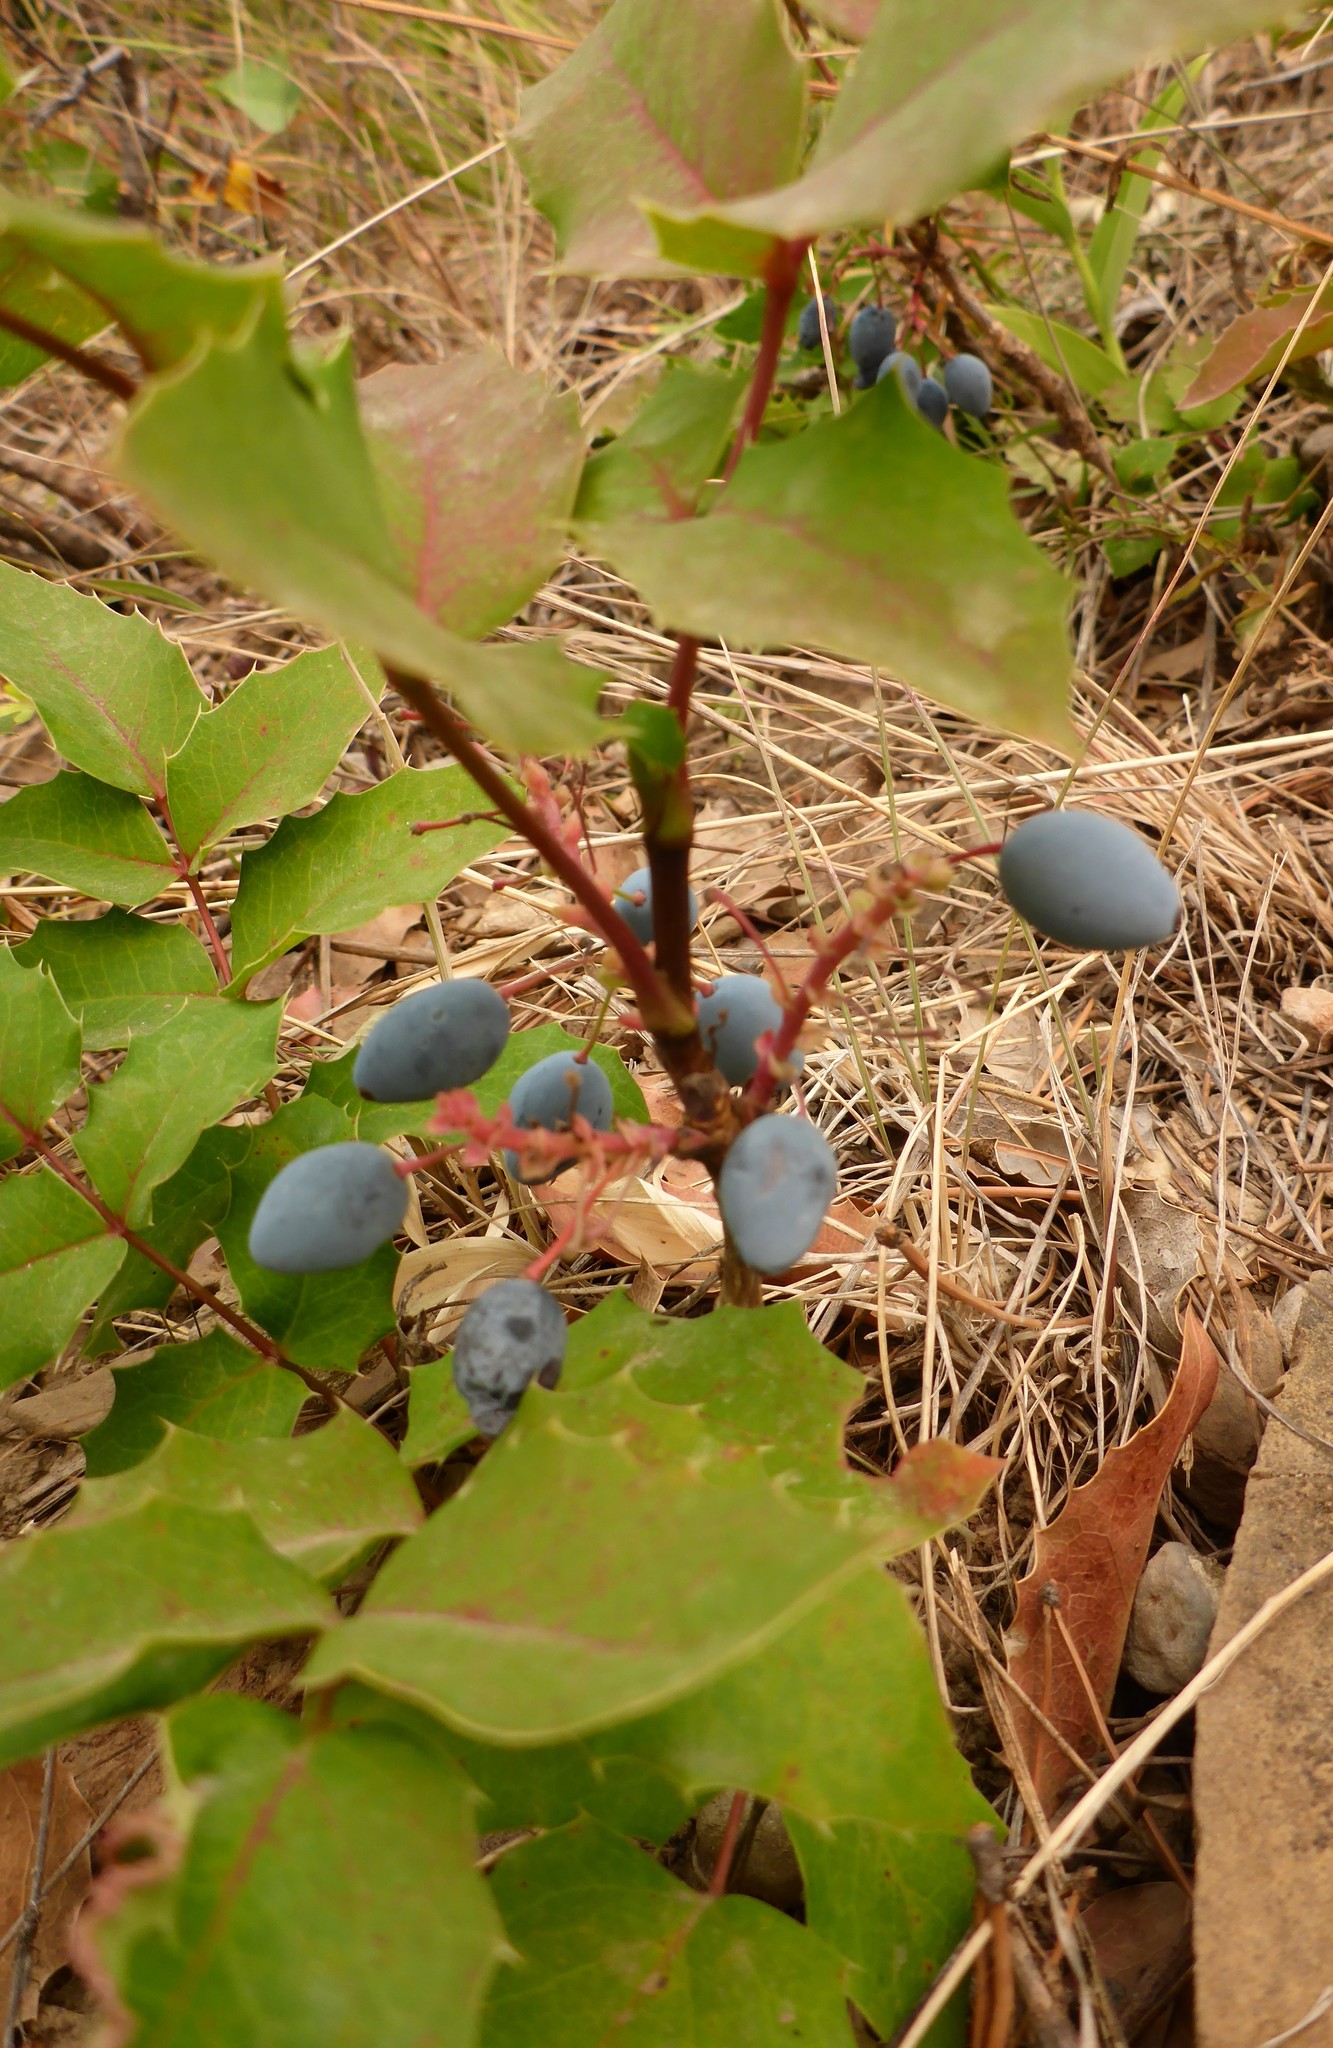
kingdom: Plantae
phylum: Tracheophyta
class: Magnoliopsida
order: Ranunculales
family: Berberidaceae
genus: Mahonia
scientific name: Mahonia repens
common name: Creeping oregon-grape
